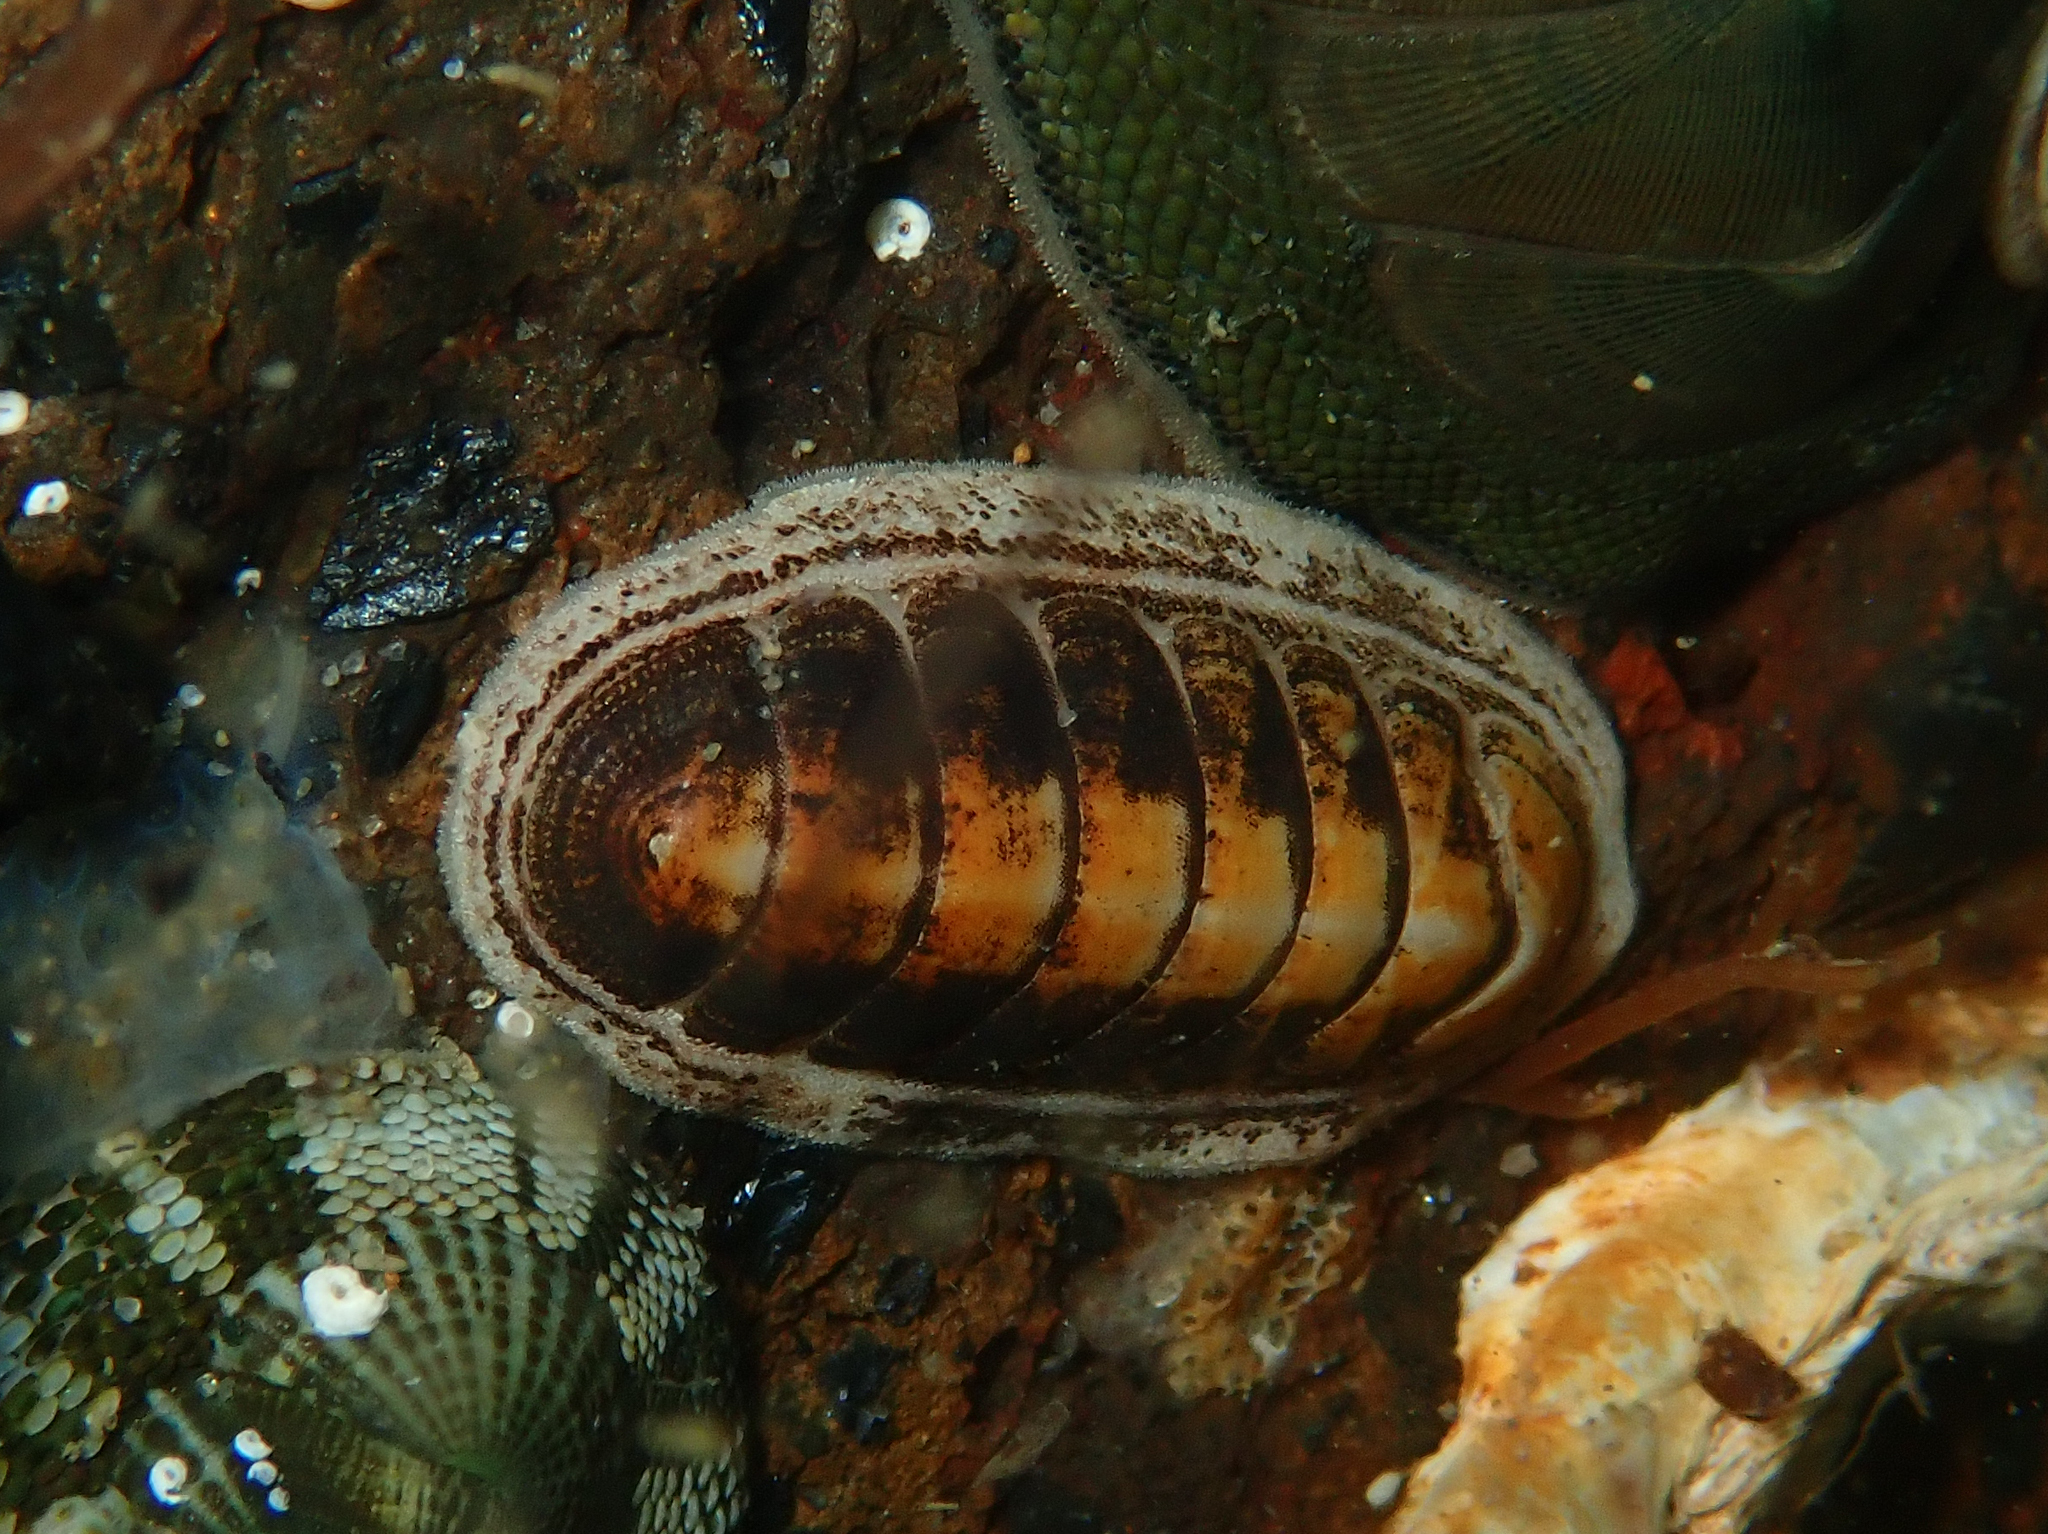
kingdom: Animalia
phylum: Mollusca
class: Polyplacophora
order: Chitonida
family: Chitonidae
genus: Chiton
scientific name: Chiton glaucus
